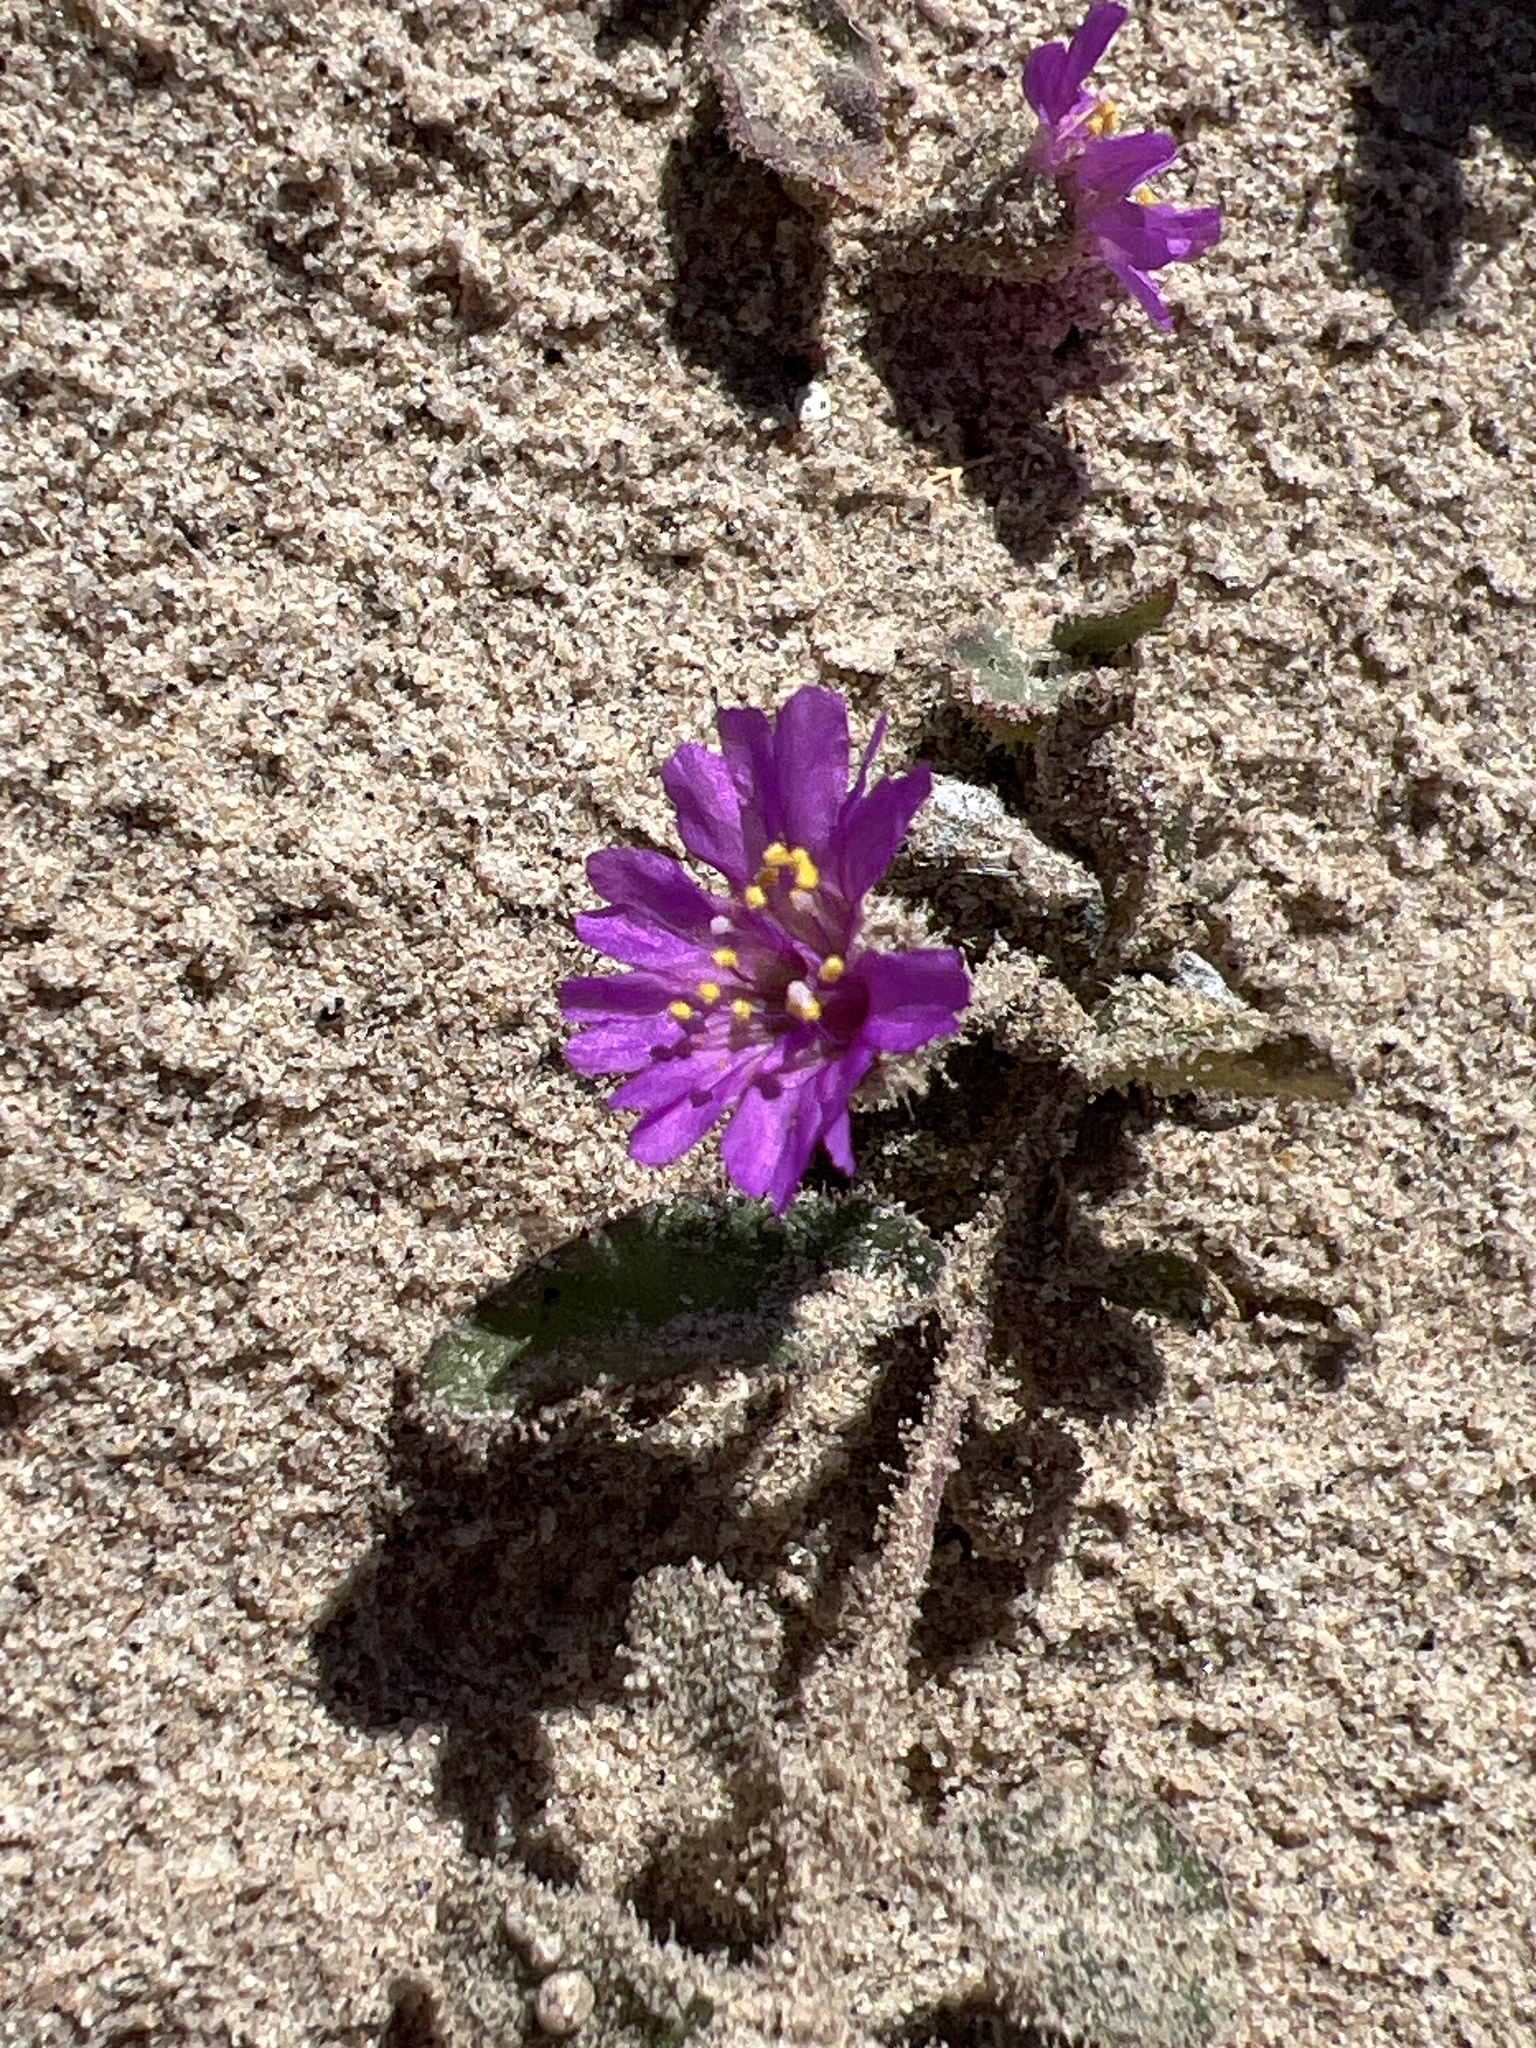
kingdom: Plantae
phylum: Tracheophyta
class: Magnoliopsida
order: Caryophyllales
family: Nyctaginaceae
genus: Allionia
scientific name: Allionia incarnata
